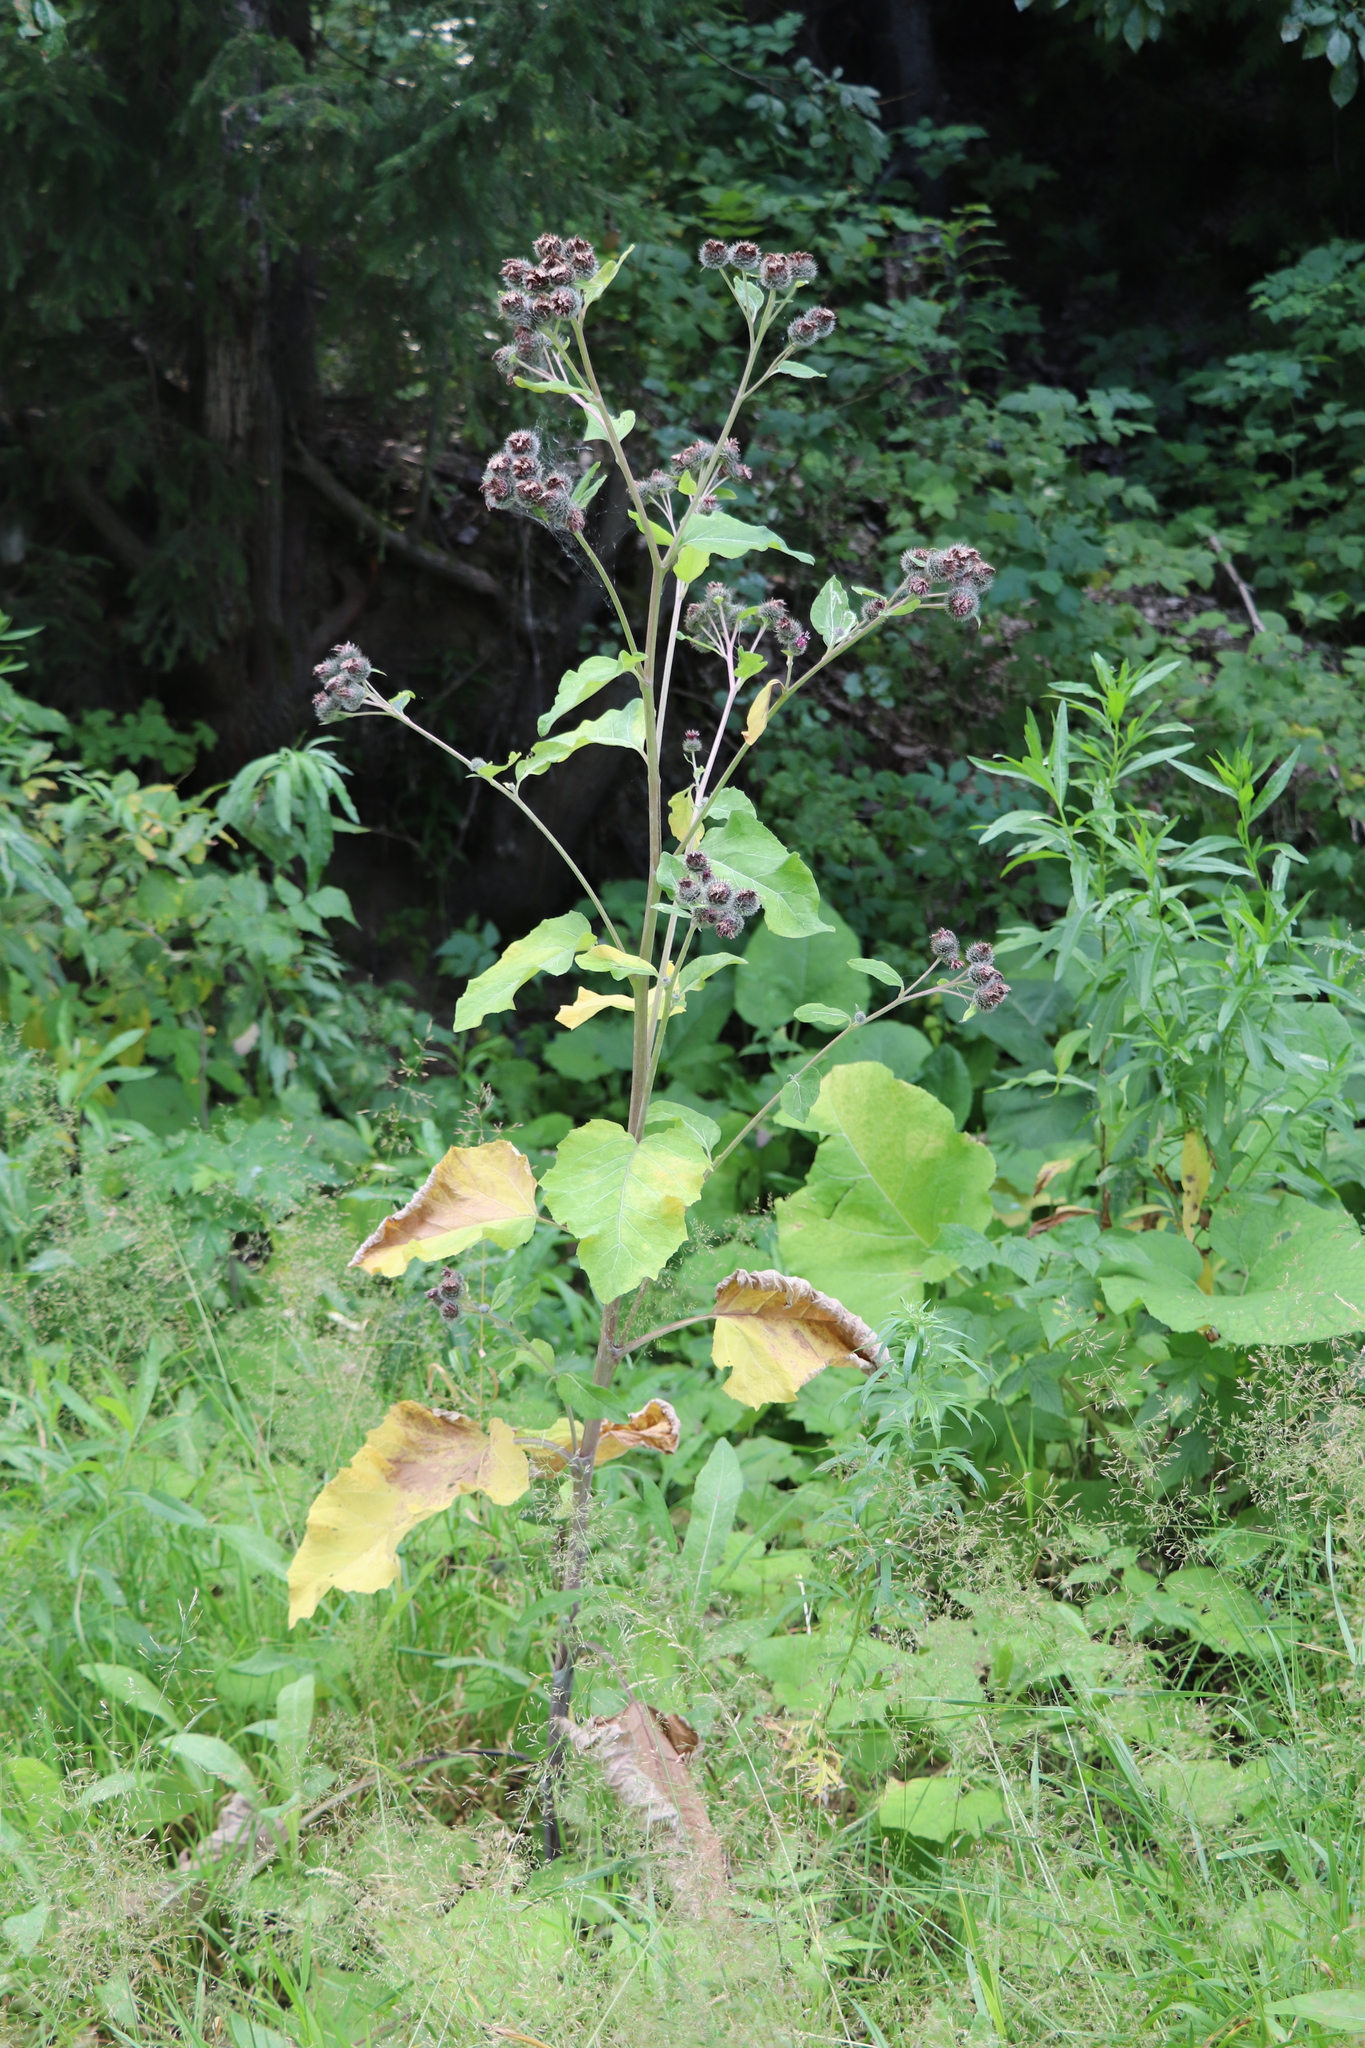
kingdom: Plantae
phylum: Tracheophyta
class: Magnoliopsida
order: Asterales
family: Asteraceae
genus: Arctium
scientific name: Arctium tomentosum
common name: Woolly burdock
